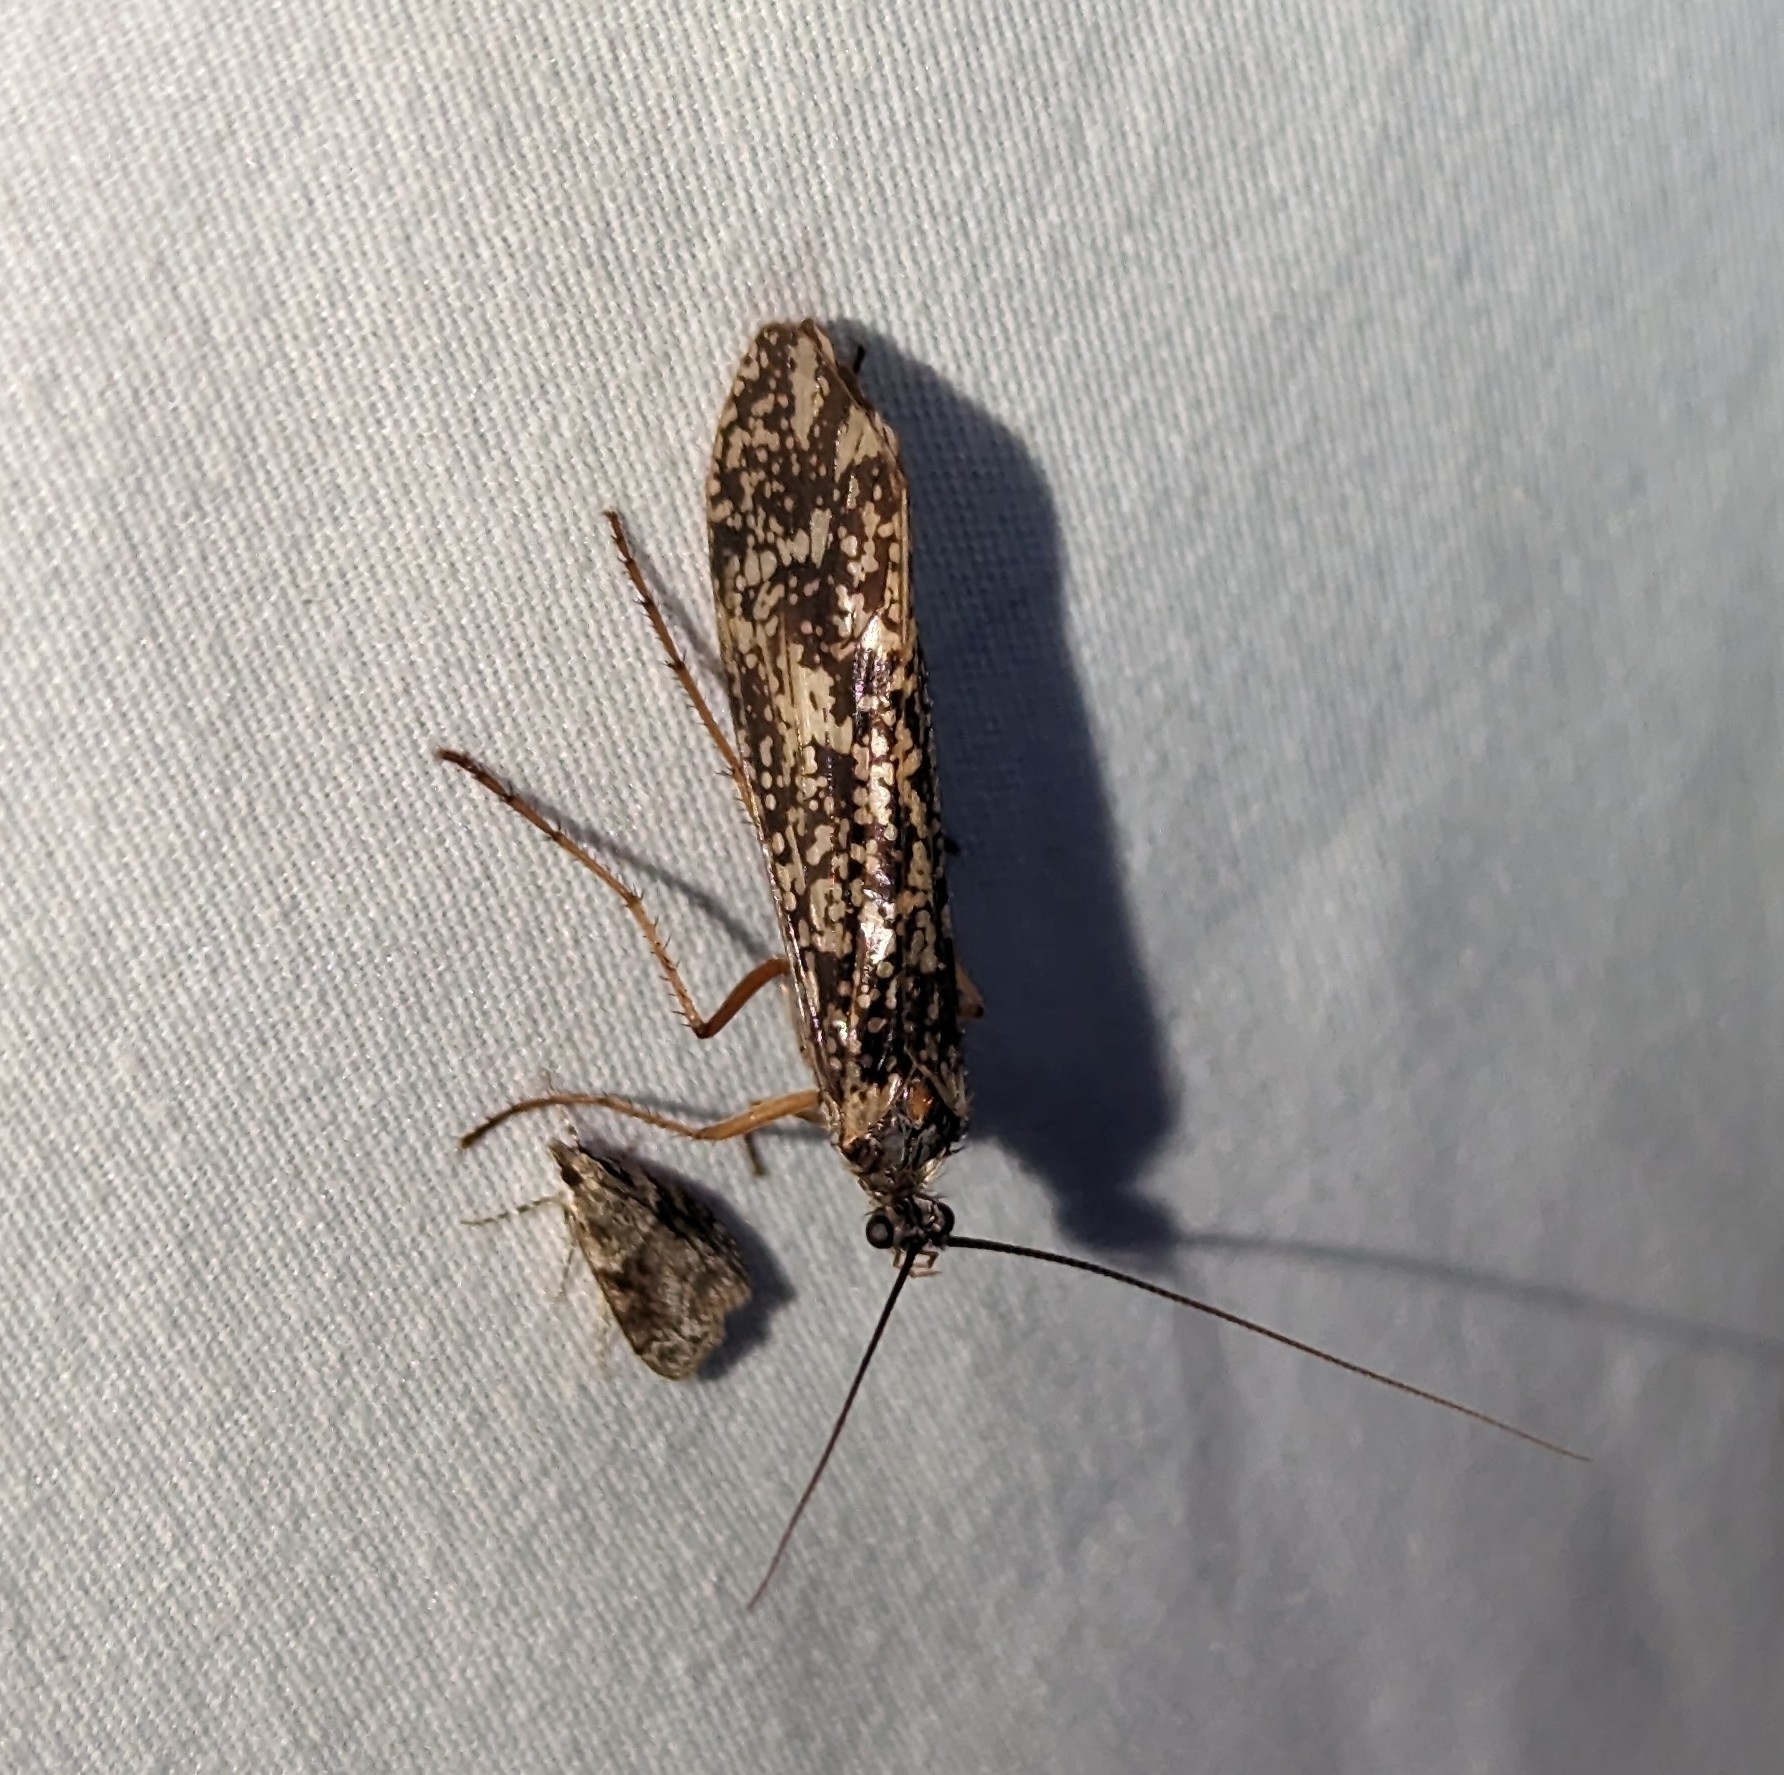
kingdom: Animalia
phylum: Arthropoda
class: Insecta
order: Trichoptera
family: Limnephilidae
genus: Clistoronia
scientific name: Clistoronia magnifica
